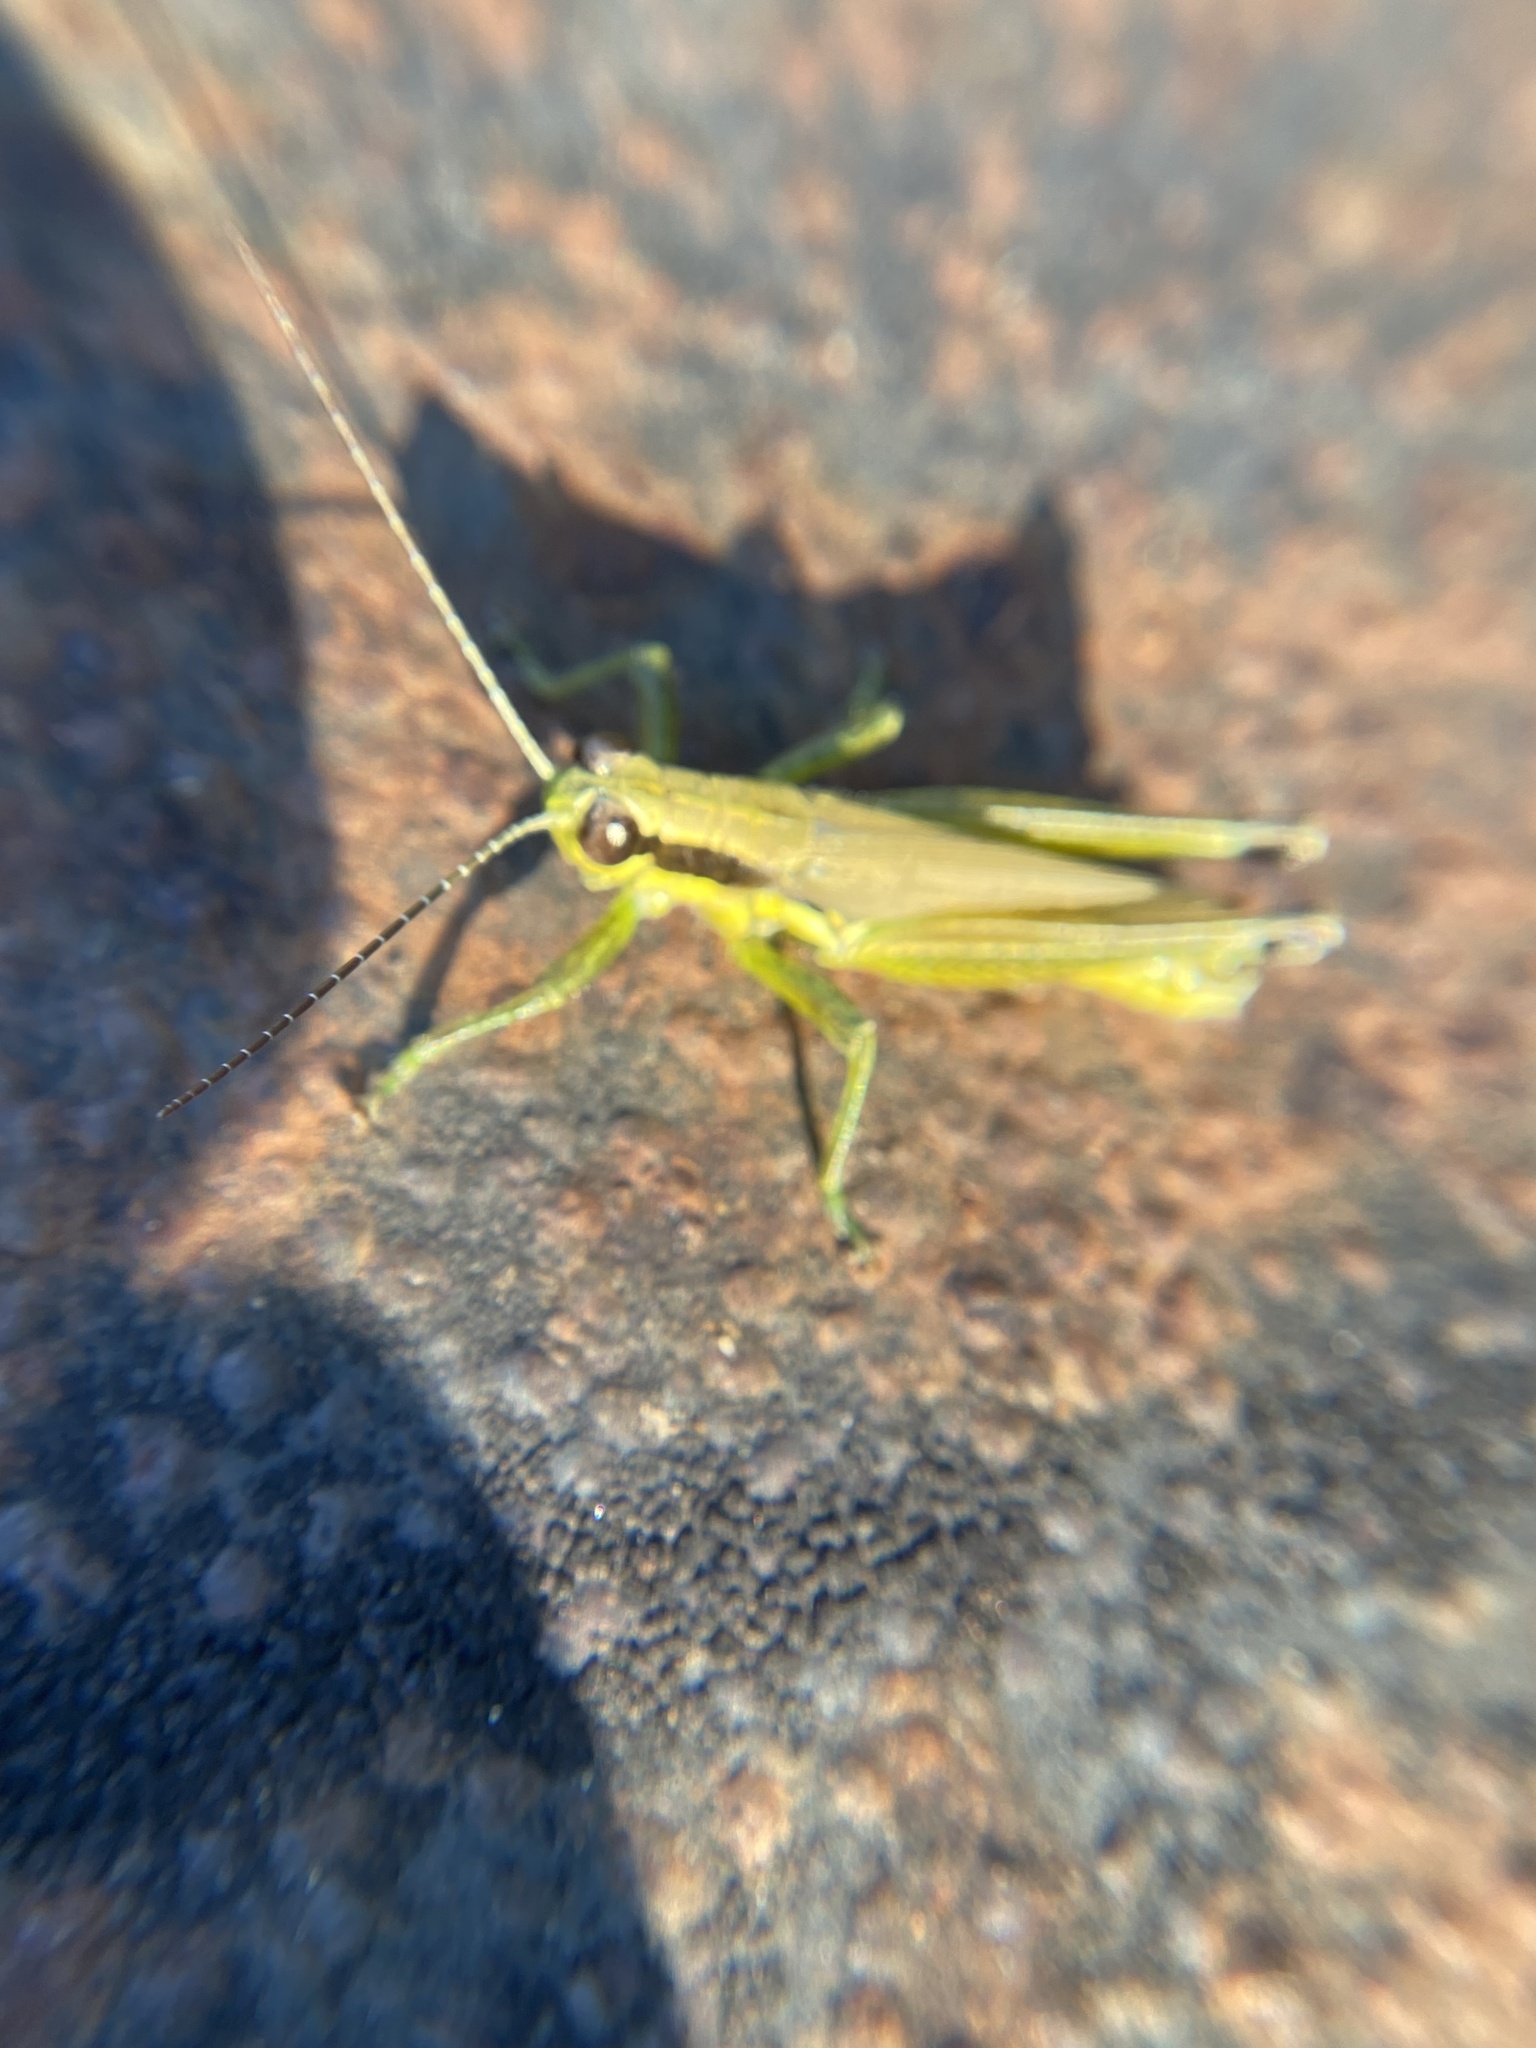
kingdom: Animalia
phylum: Arthropoda
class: Insecta
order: Orthoptera
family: Acrididae
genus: Paroxya
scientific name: Paroxya clavuligera
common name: Olive-green swamp grasshopper
